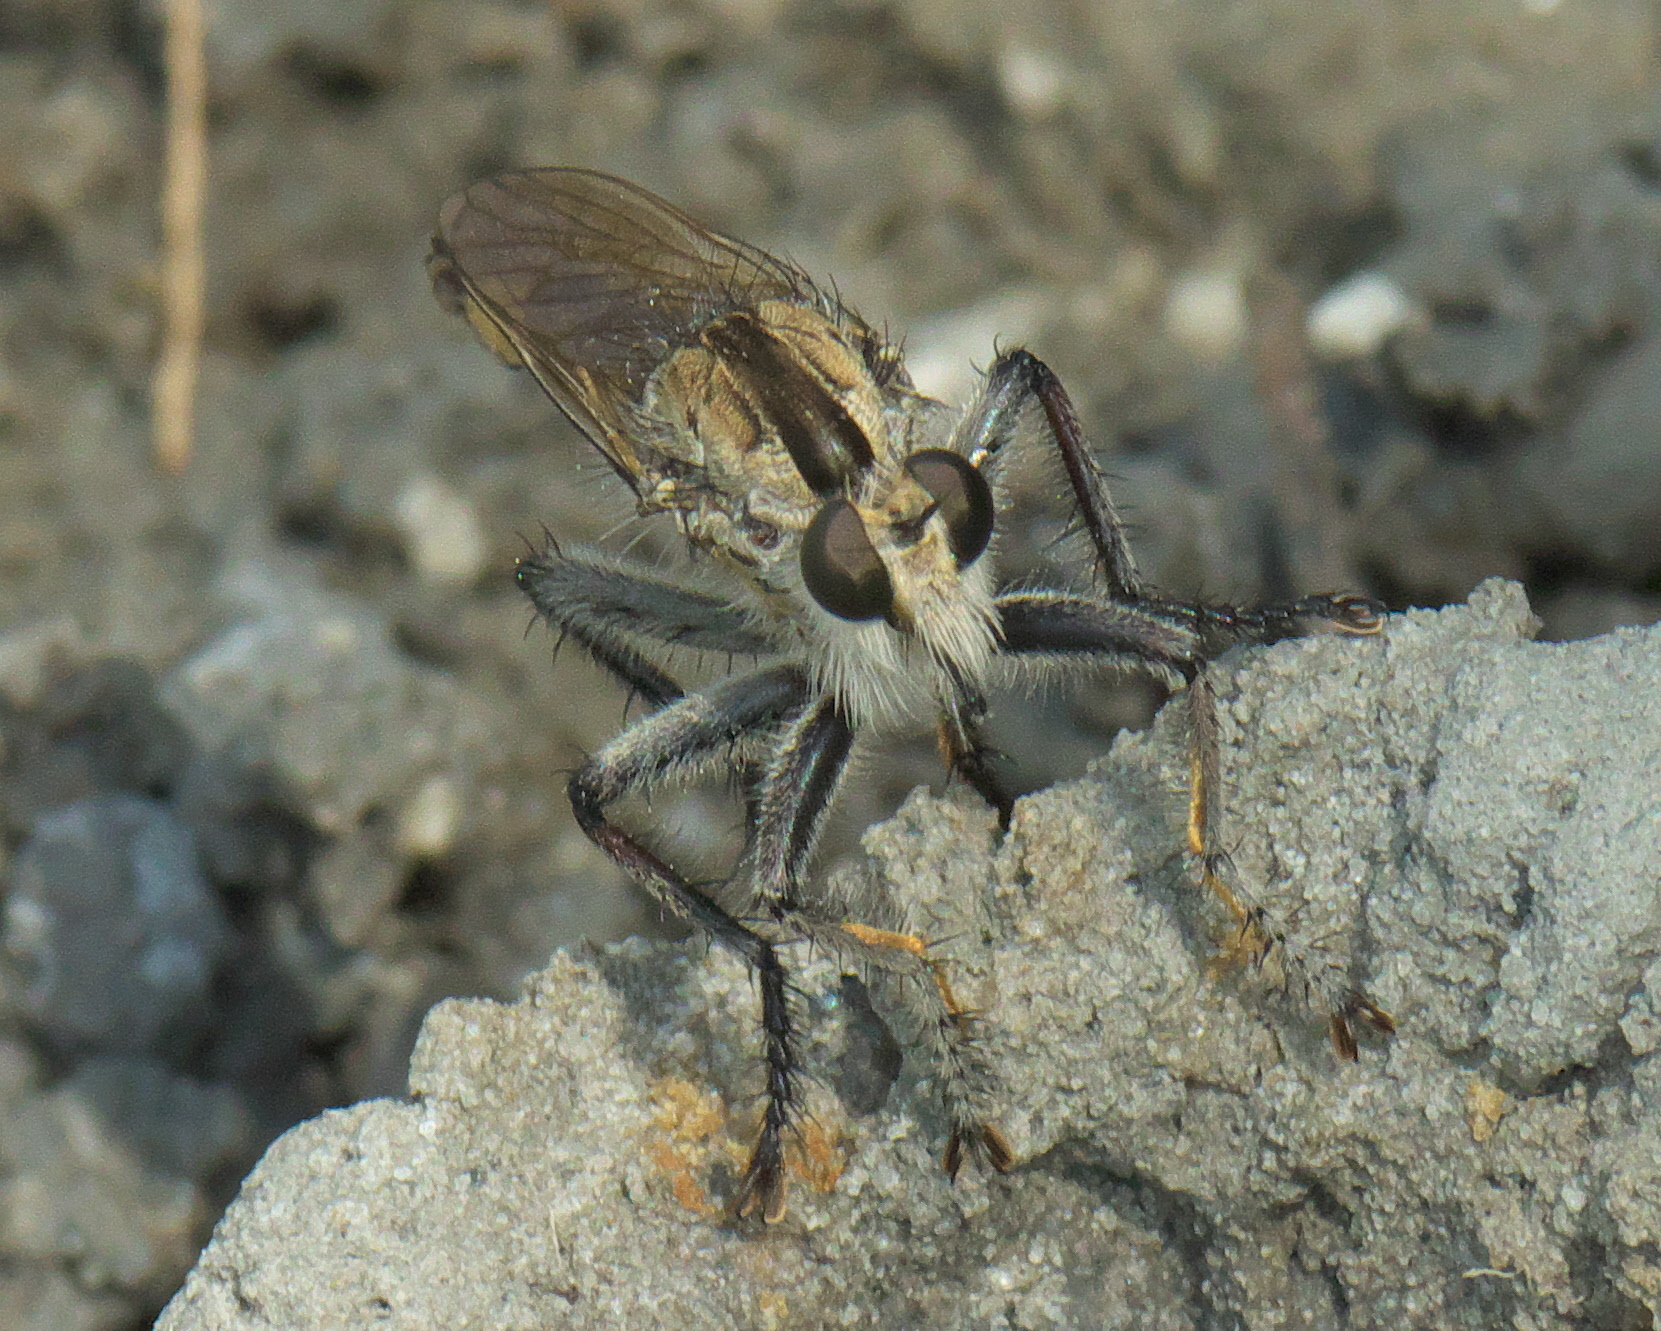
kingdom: Animalia
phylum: Arthropoda
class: Insecta
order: Diptera
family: Asilidae
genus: Triorla
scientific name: Triorla interrupta
